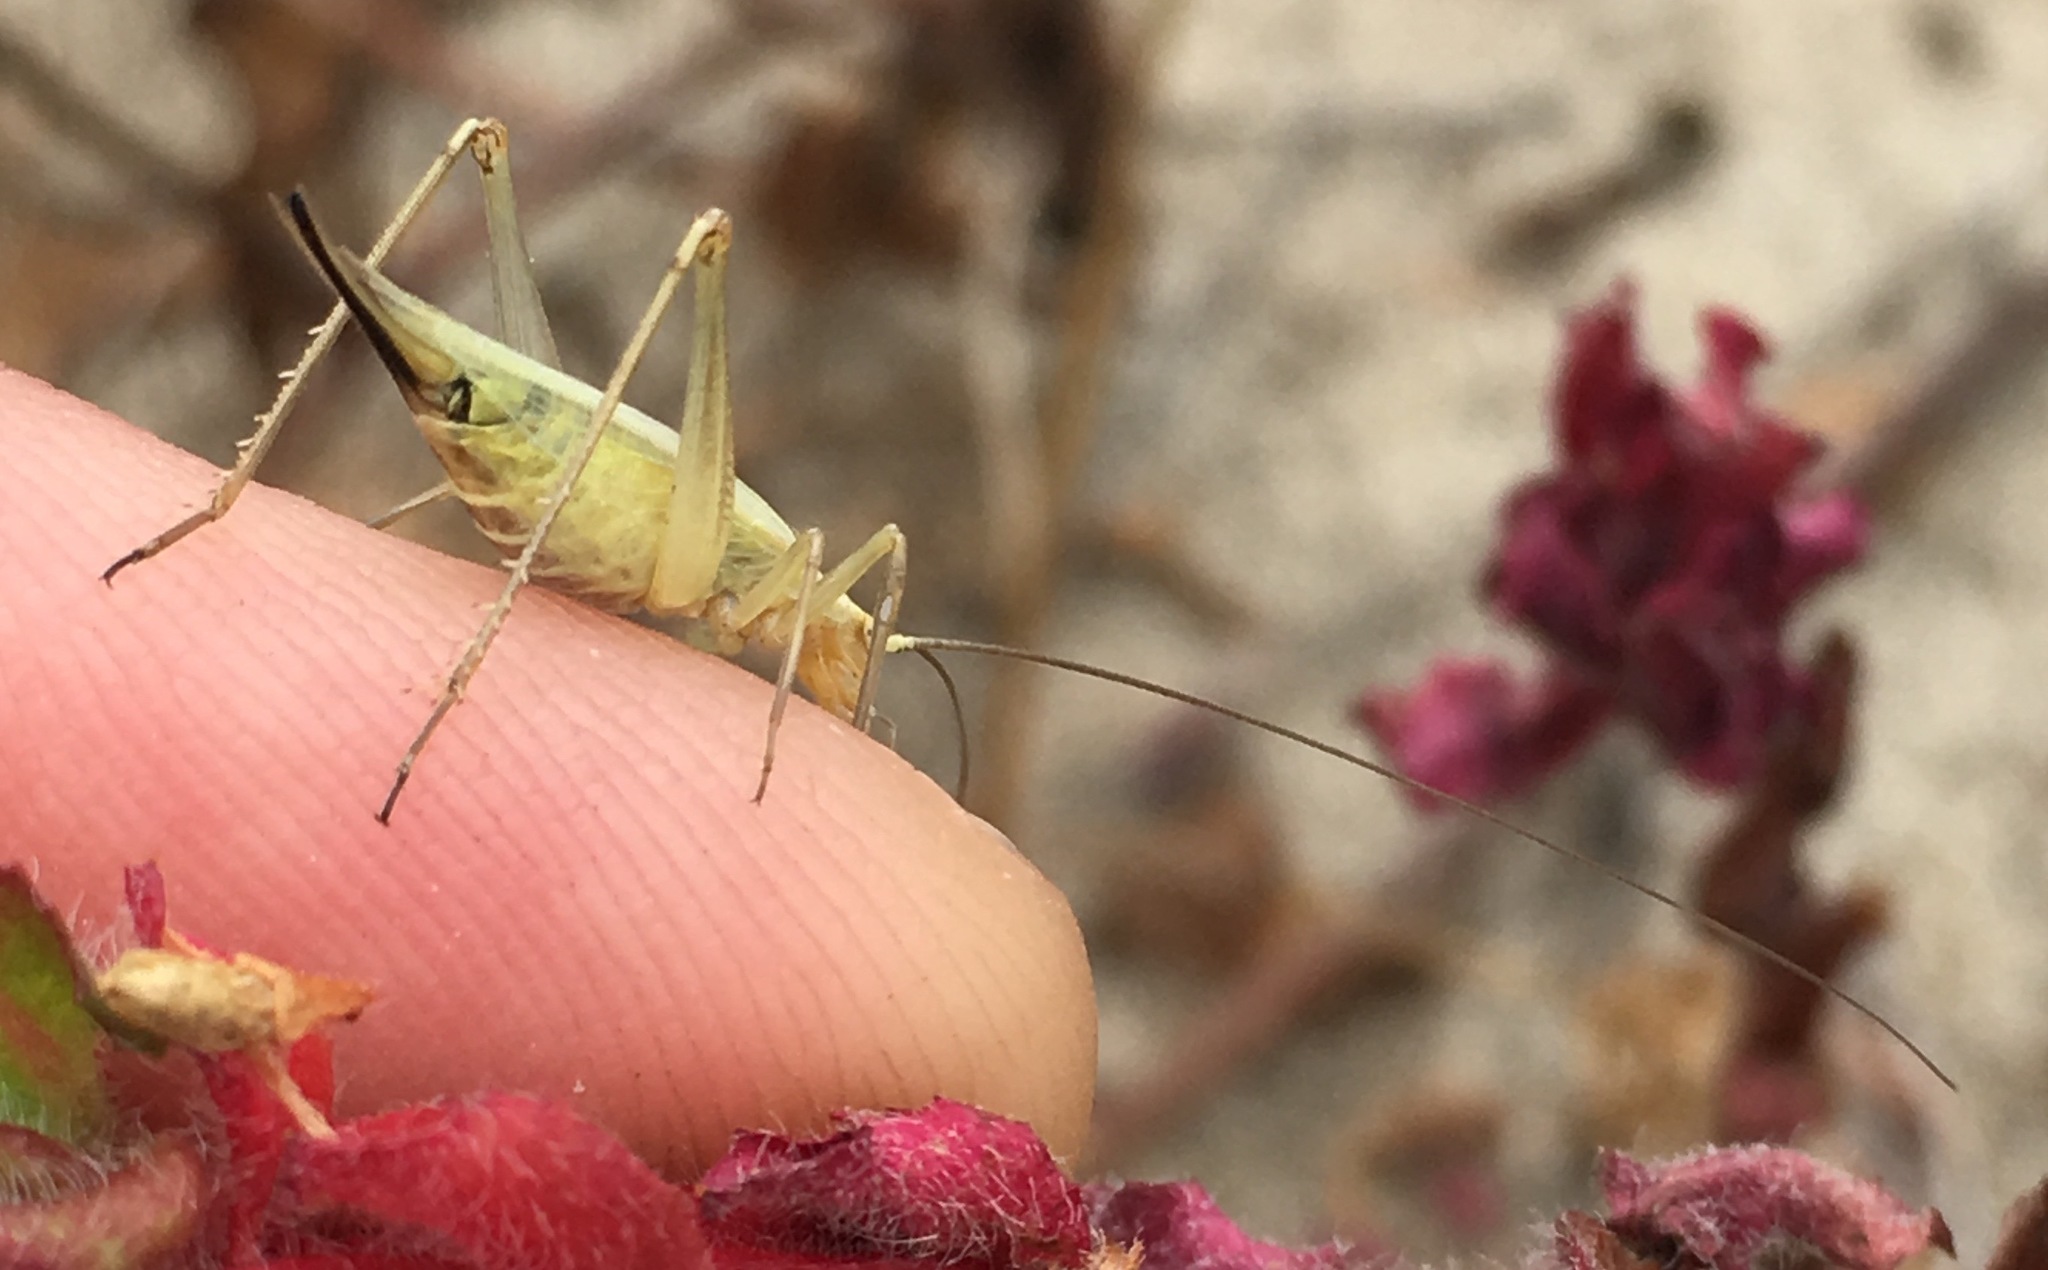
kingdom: Animalia
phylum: Arthropoda
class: Insecta
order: Orthoptera
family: Gryllidae
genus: Oecanthus
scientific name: Oecanthus argentinus
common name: Prairie tree cricket
